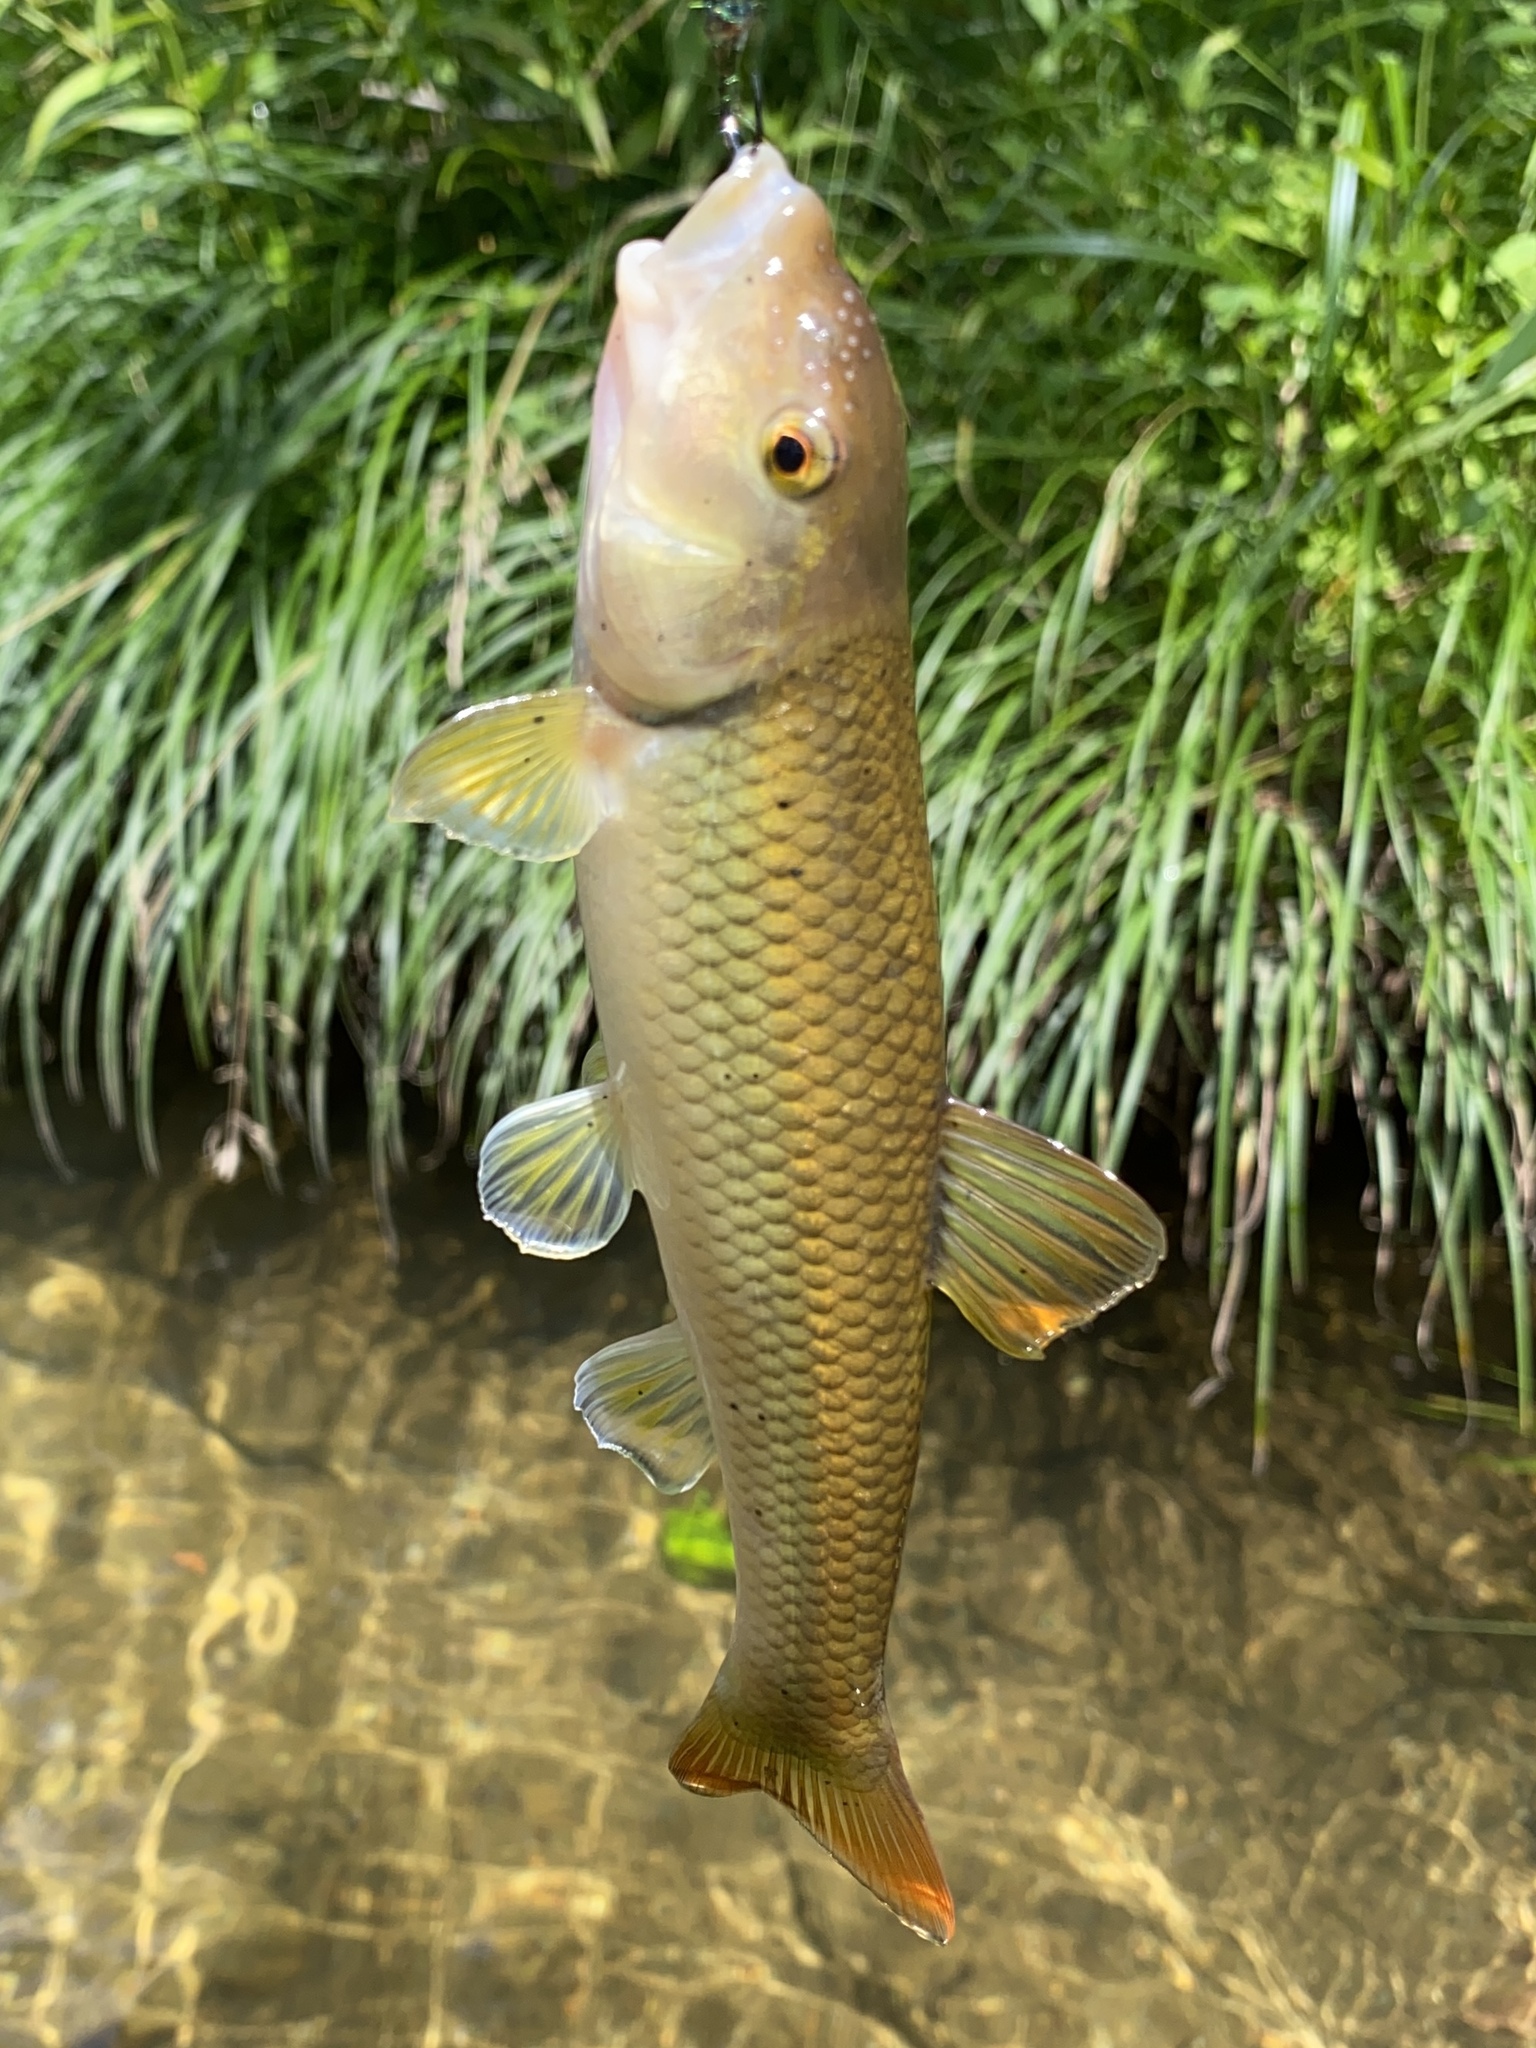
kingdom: Animalia
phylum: Chordata
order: Cypriniformes
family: Cyprinidae
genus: Nocomis
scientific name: Nocomis micropogon
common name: River chub
